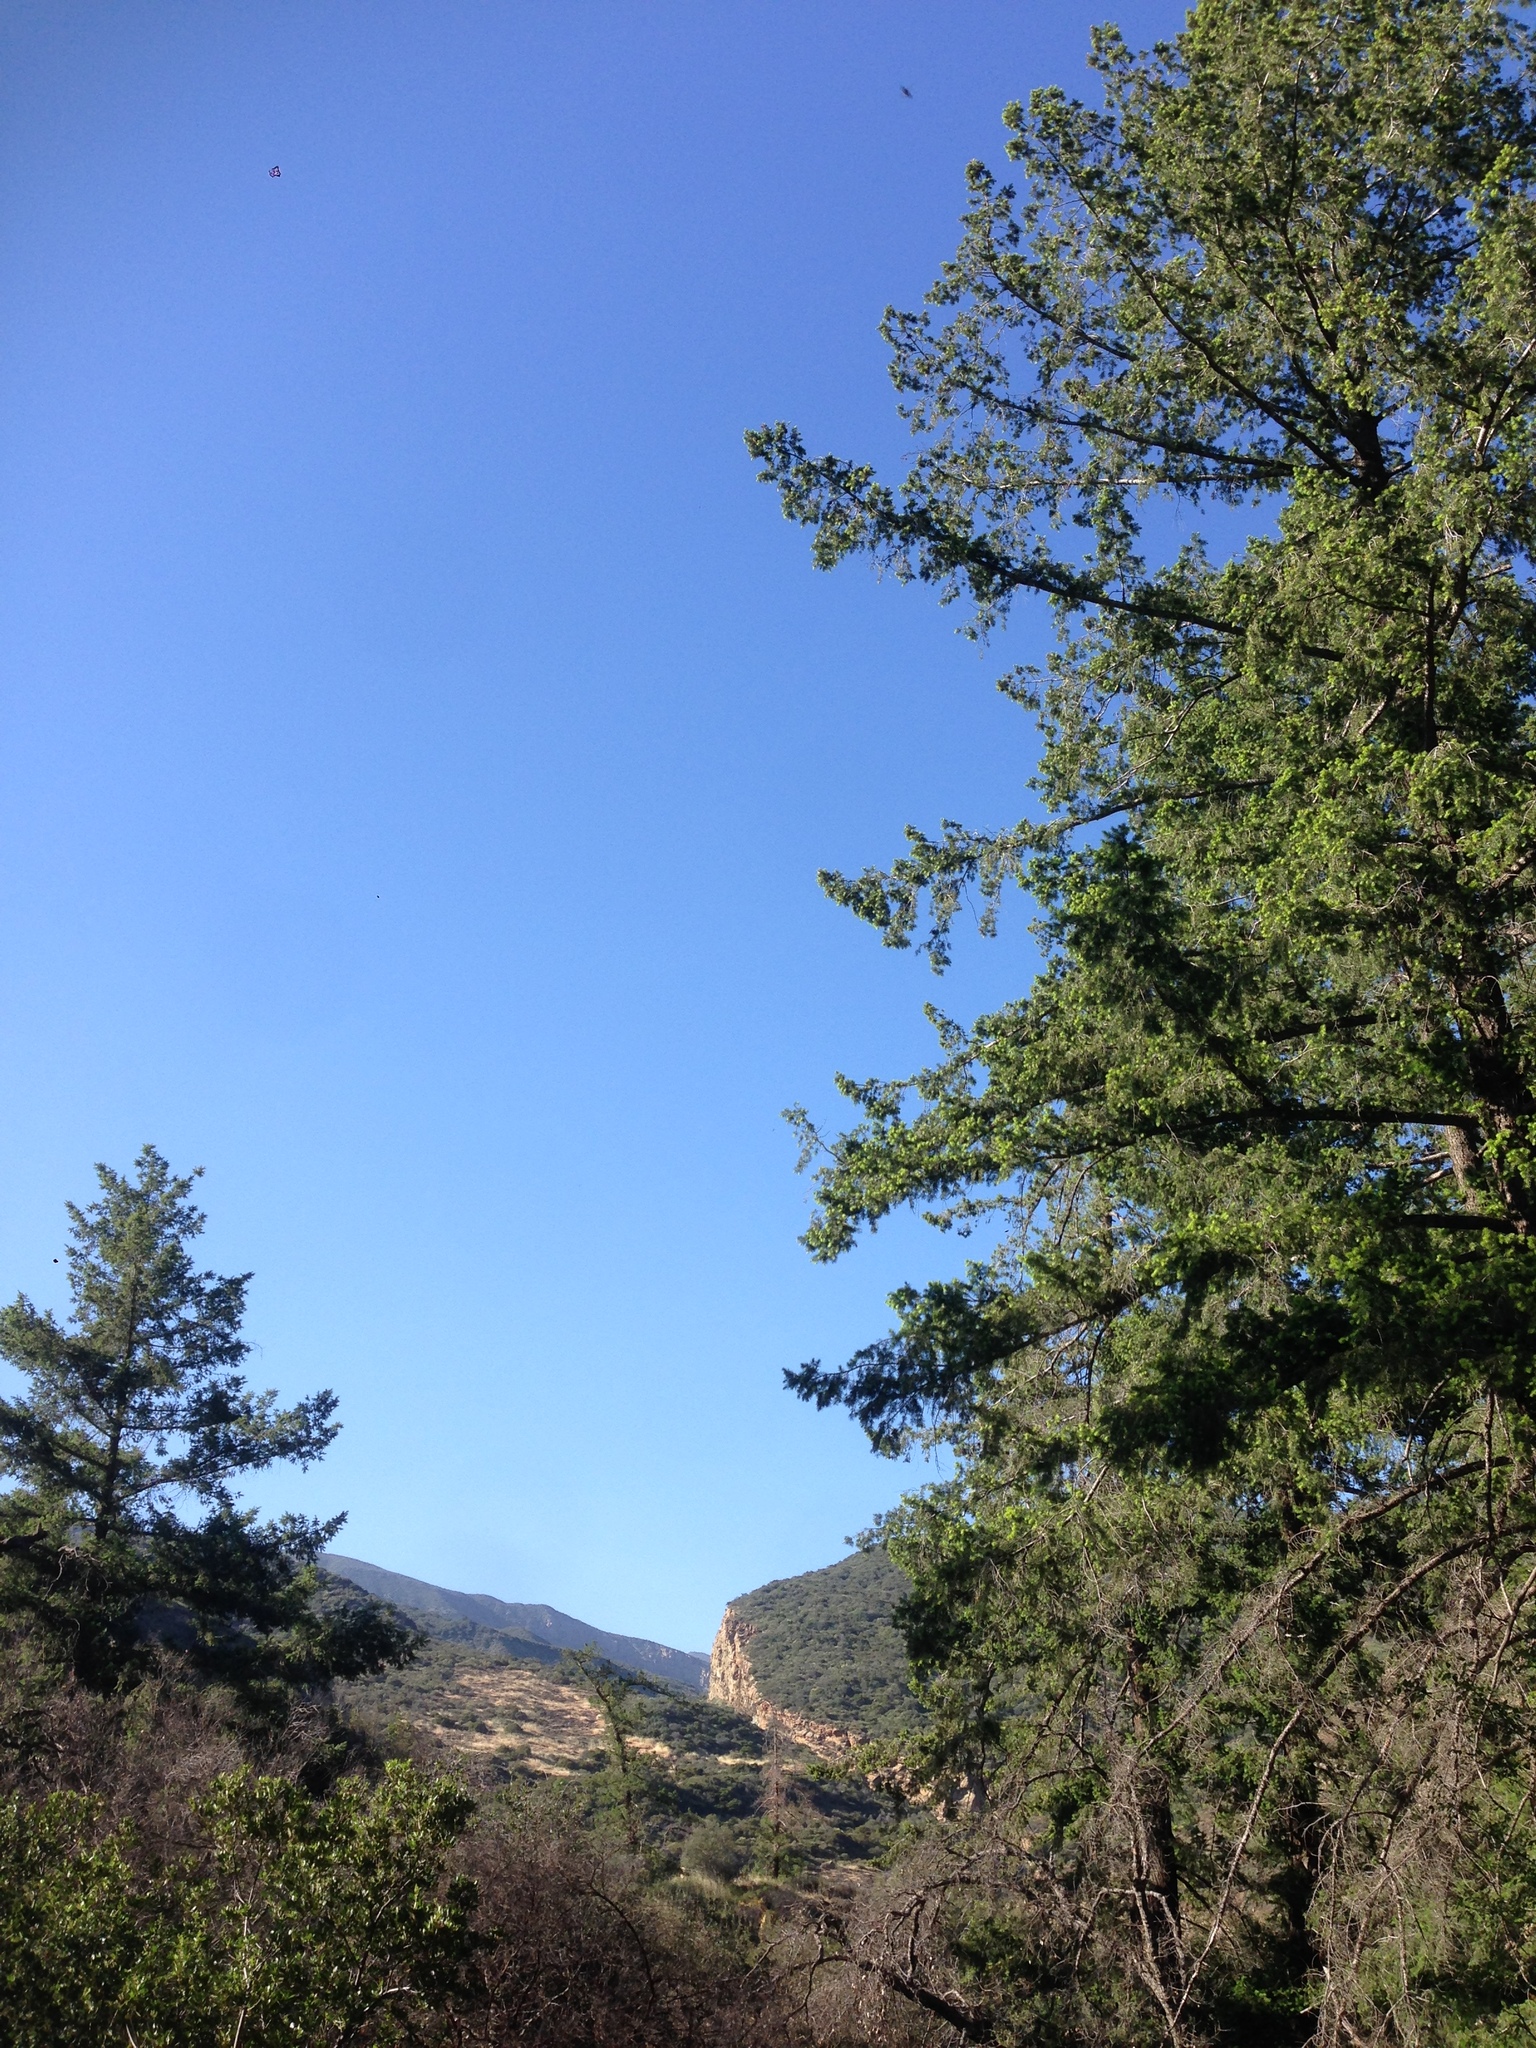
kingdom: Plantae
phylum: Tracheophyta
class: Pinopsida
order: Pinales
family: Pinaceae
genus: Pseudotsuga
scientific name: Pseudotsuga macrocarpa
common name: Big-cone douglas-fir
